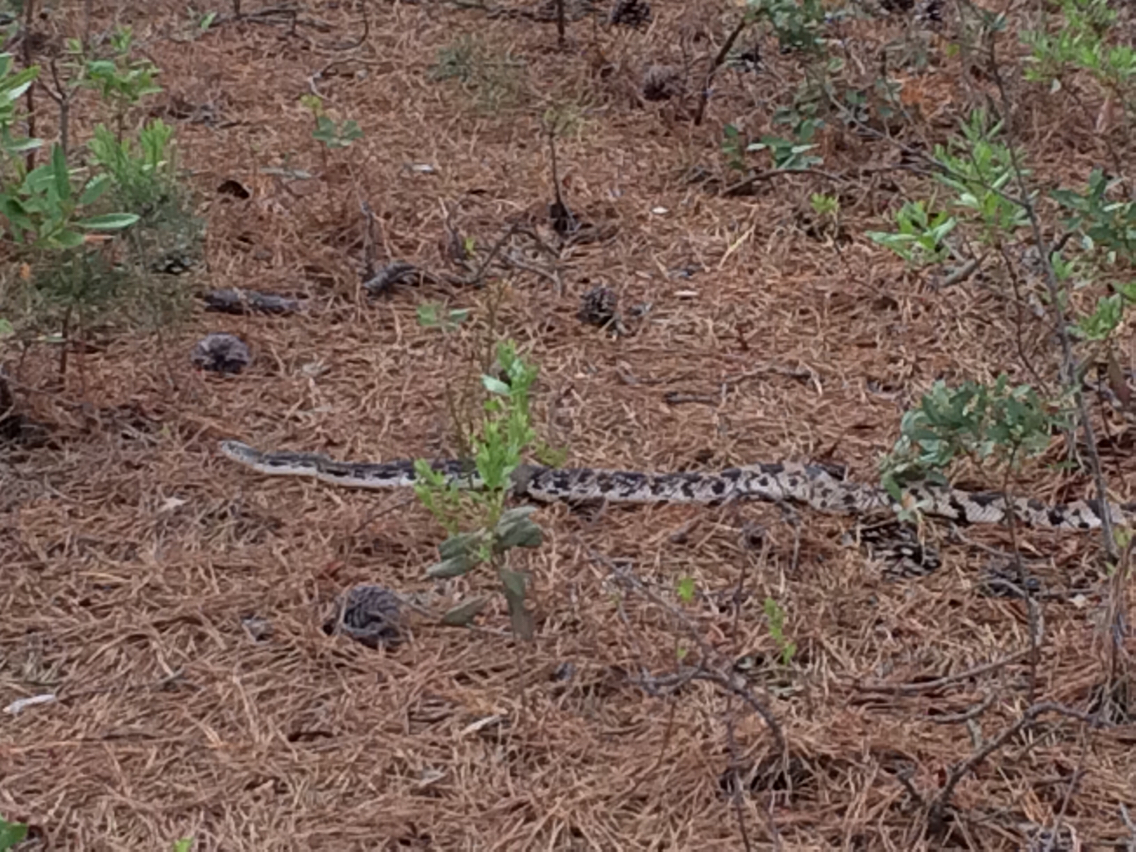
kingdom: Animalia
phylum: Chordata
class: Squamata
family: Colubridae
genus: Pituophis
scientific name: Pituophis melanoleucus
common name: Pine snake
